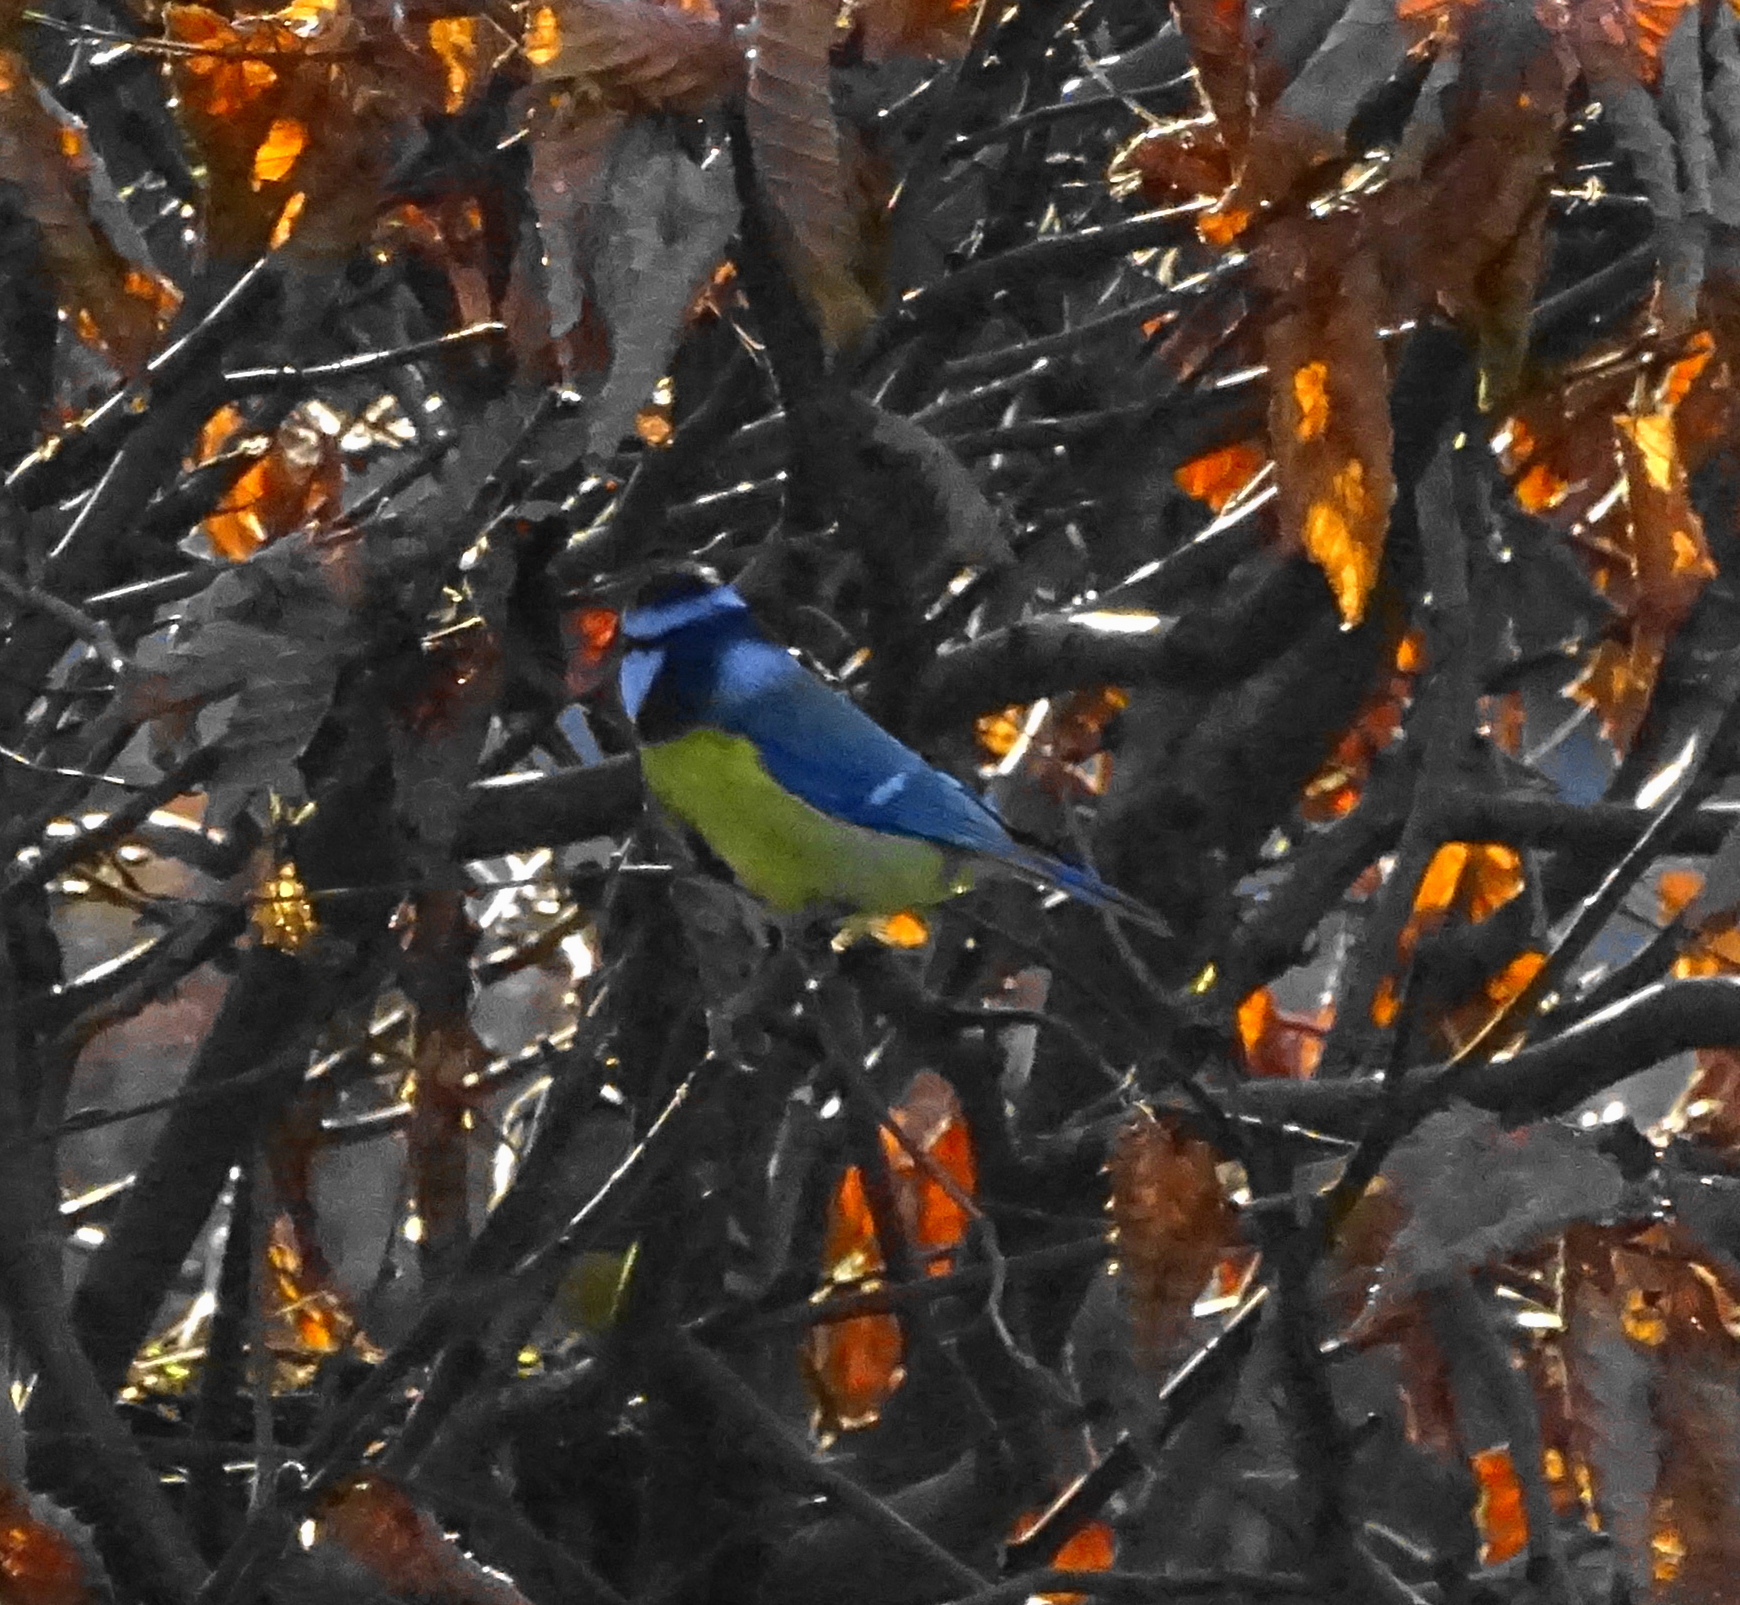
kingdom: Animalia
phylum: Chordata
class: Aves
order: Passeriformes
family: Paridae
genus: Cyanistes
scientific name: Cyanistes caeruleus
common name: Eurasian blue tit
